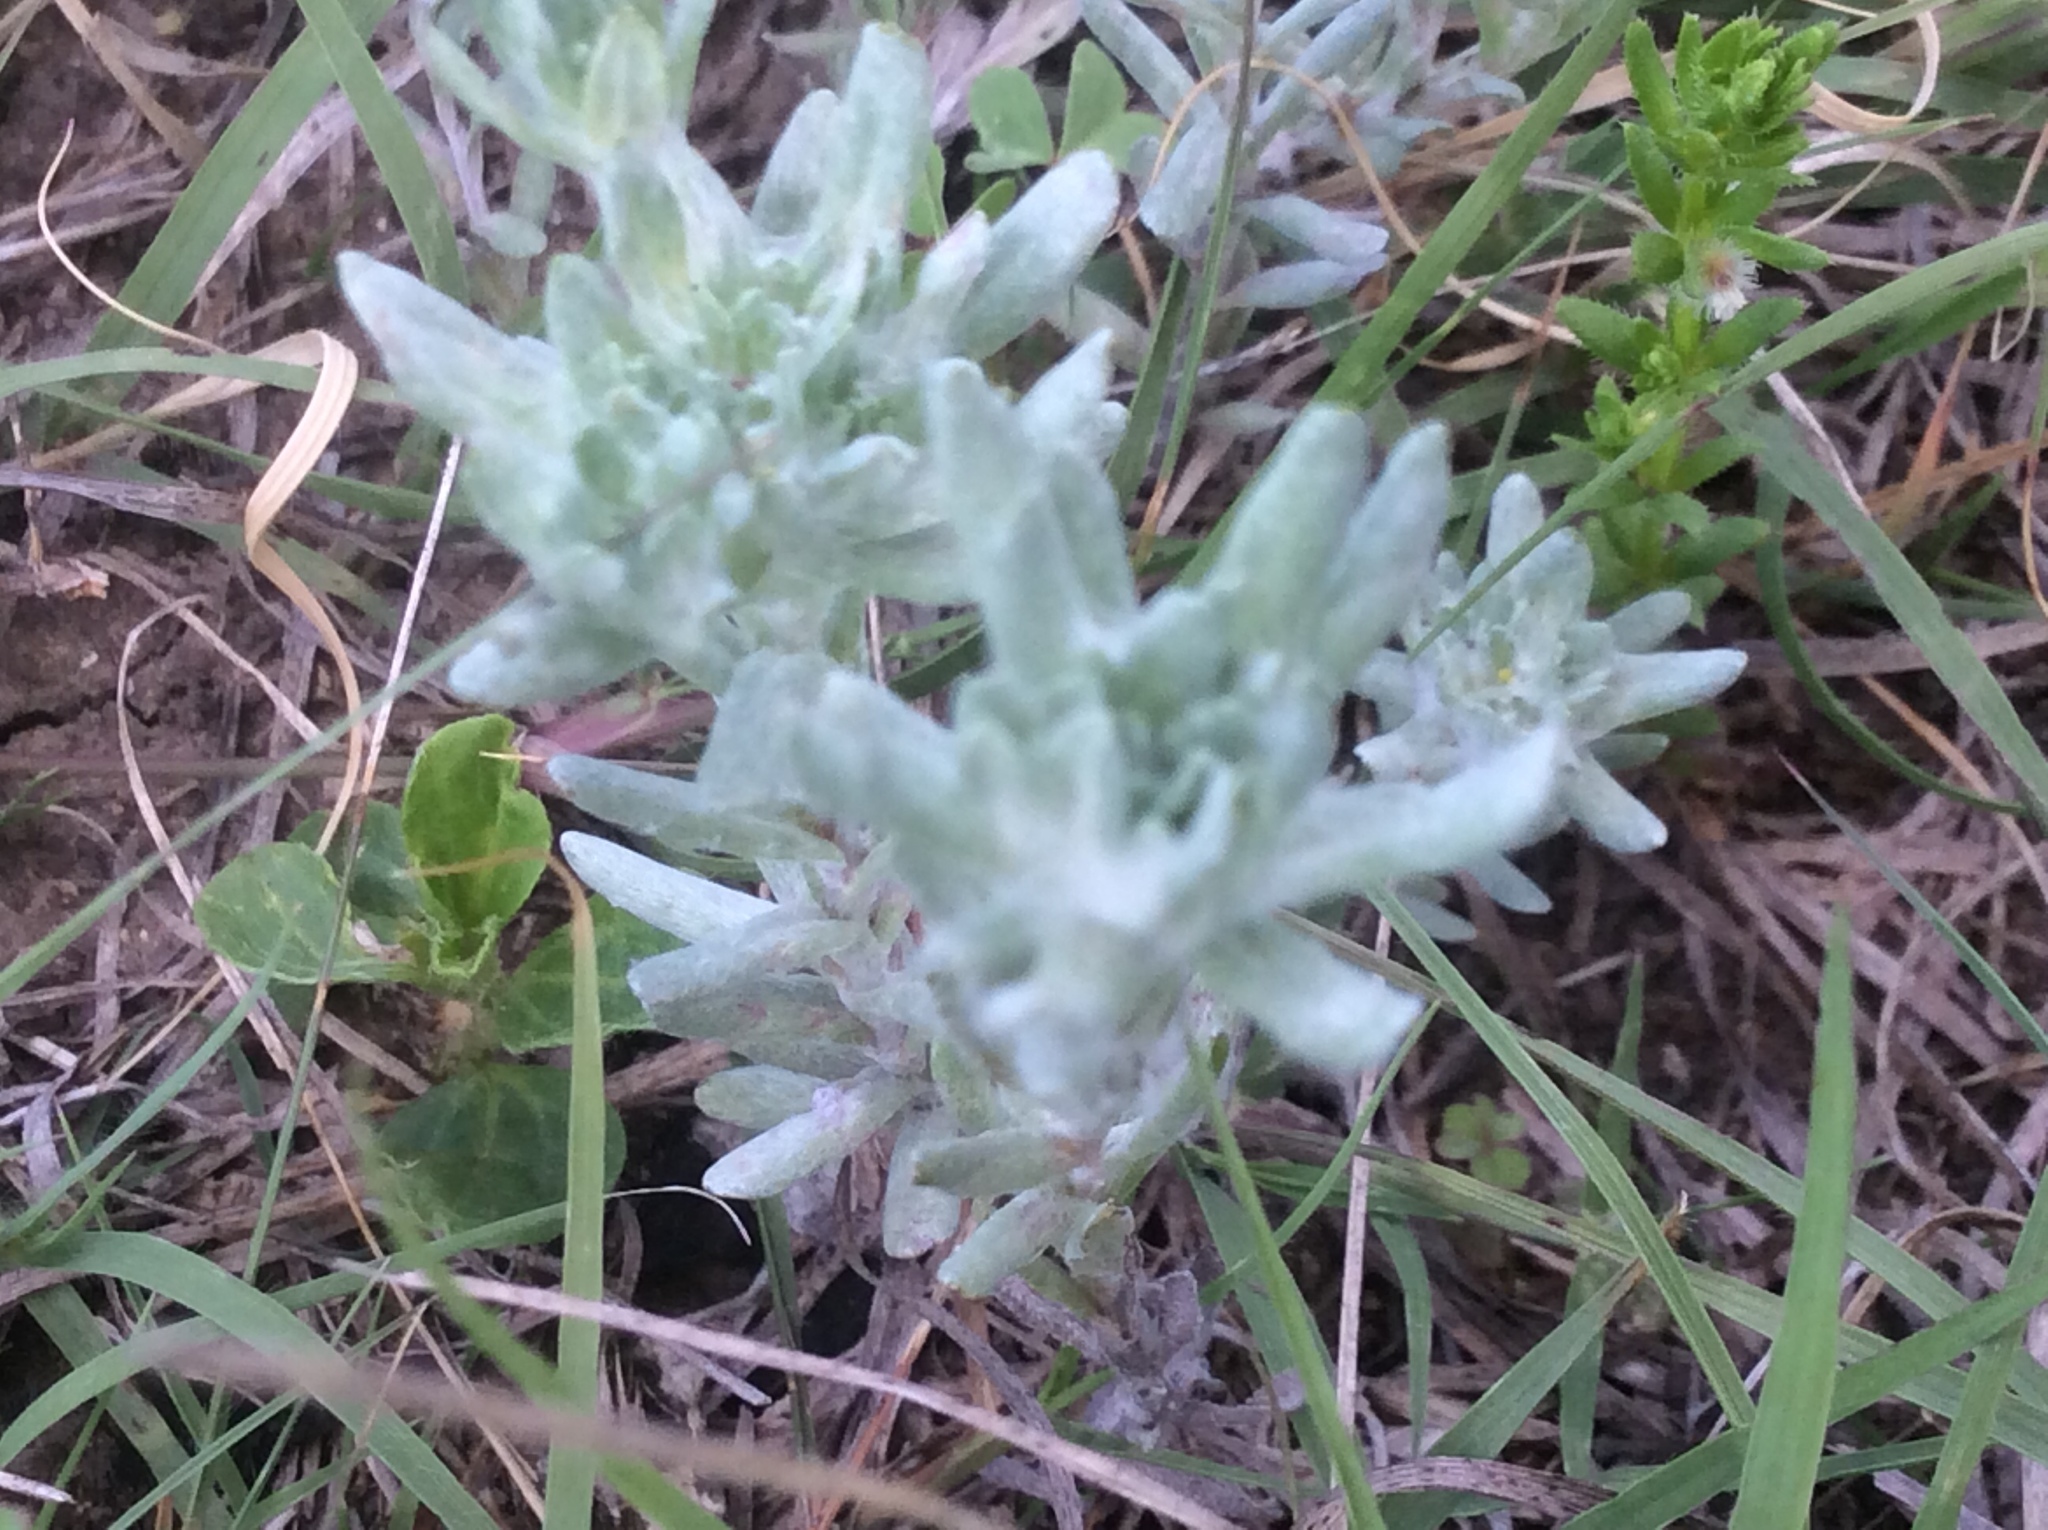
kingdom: Plantae
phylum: Tracheophyta
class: Magnoliopsida
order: Asterales
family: Asteraceae
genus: Diaperia
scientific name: Diaperia prolifera
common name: Big-head rabbit-tobacco
